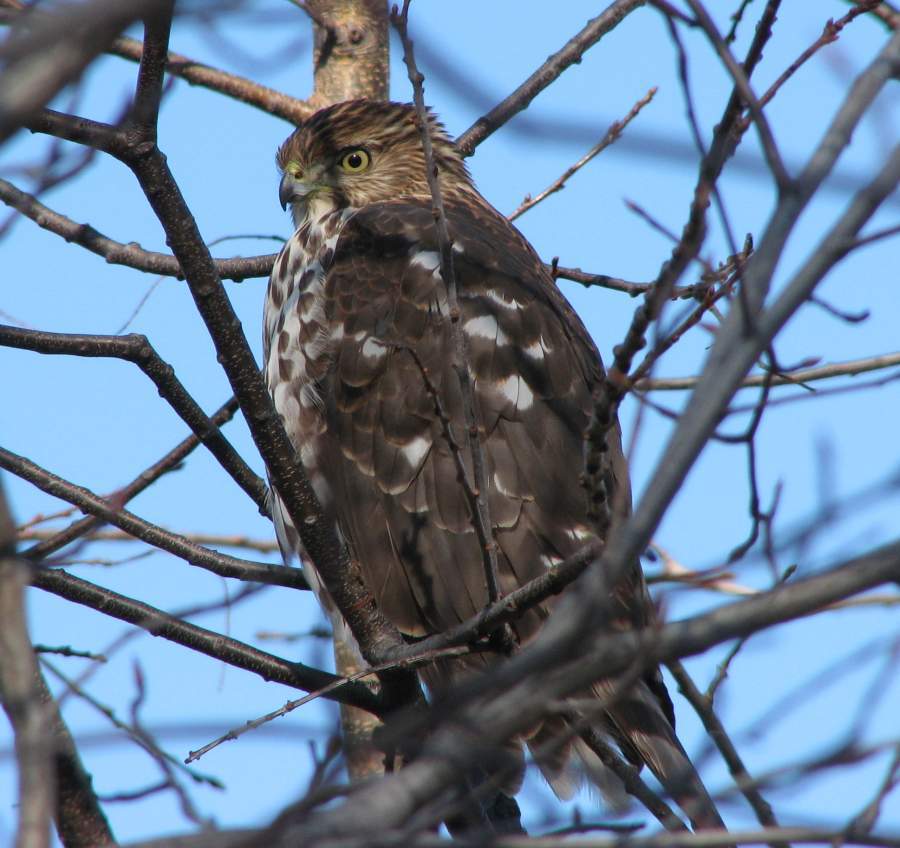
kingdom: Animalia
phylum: Chordata
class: Aves
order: Accipitriformes
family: Accipitridae
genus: Accipiter
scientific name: Accipiter cooperii
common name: Cooper's hawk
